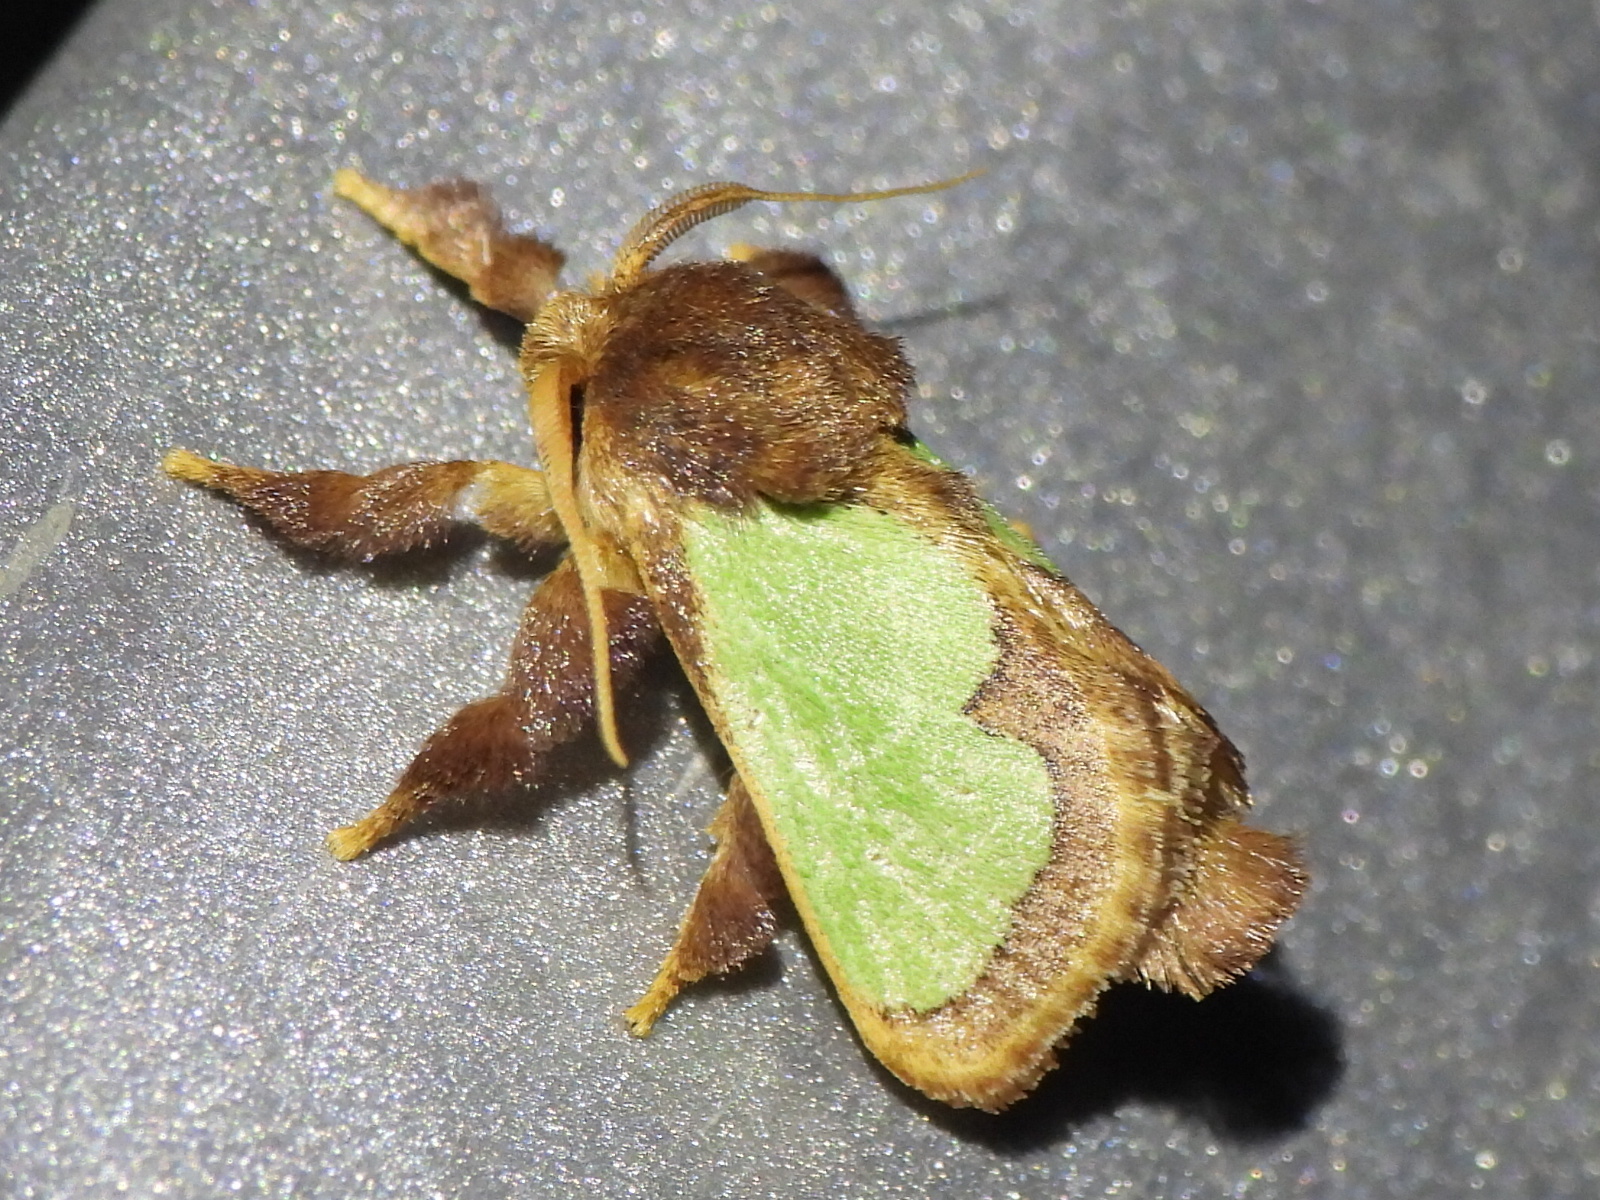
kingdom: Animalia
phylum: Arthropoda
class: Insecta
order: Lepidoptera
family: Limacodidae
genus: Euclea
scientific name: Euclea incisa
